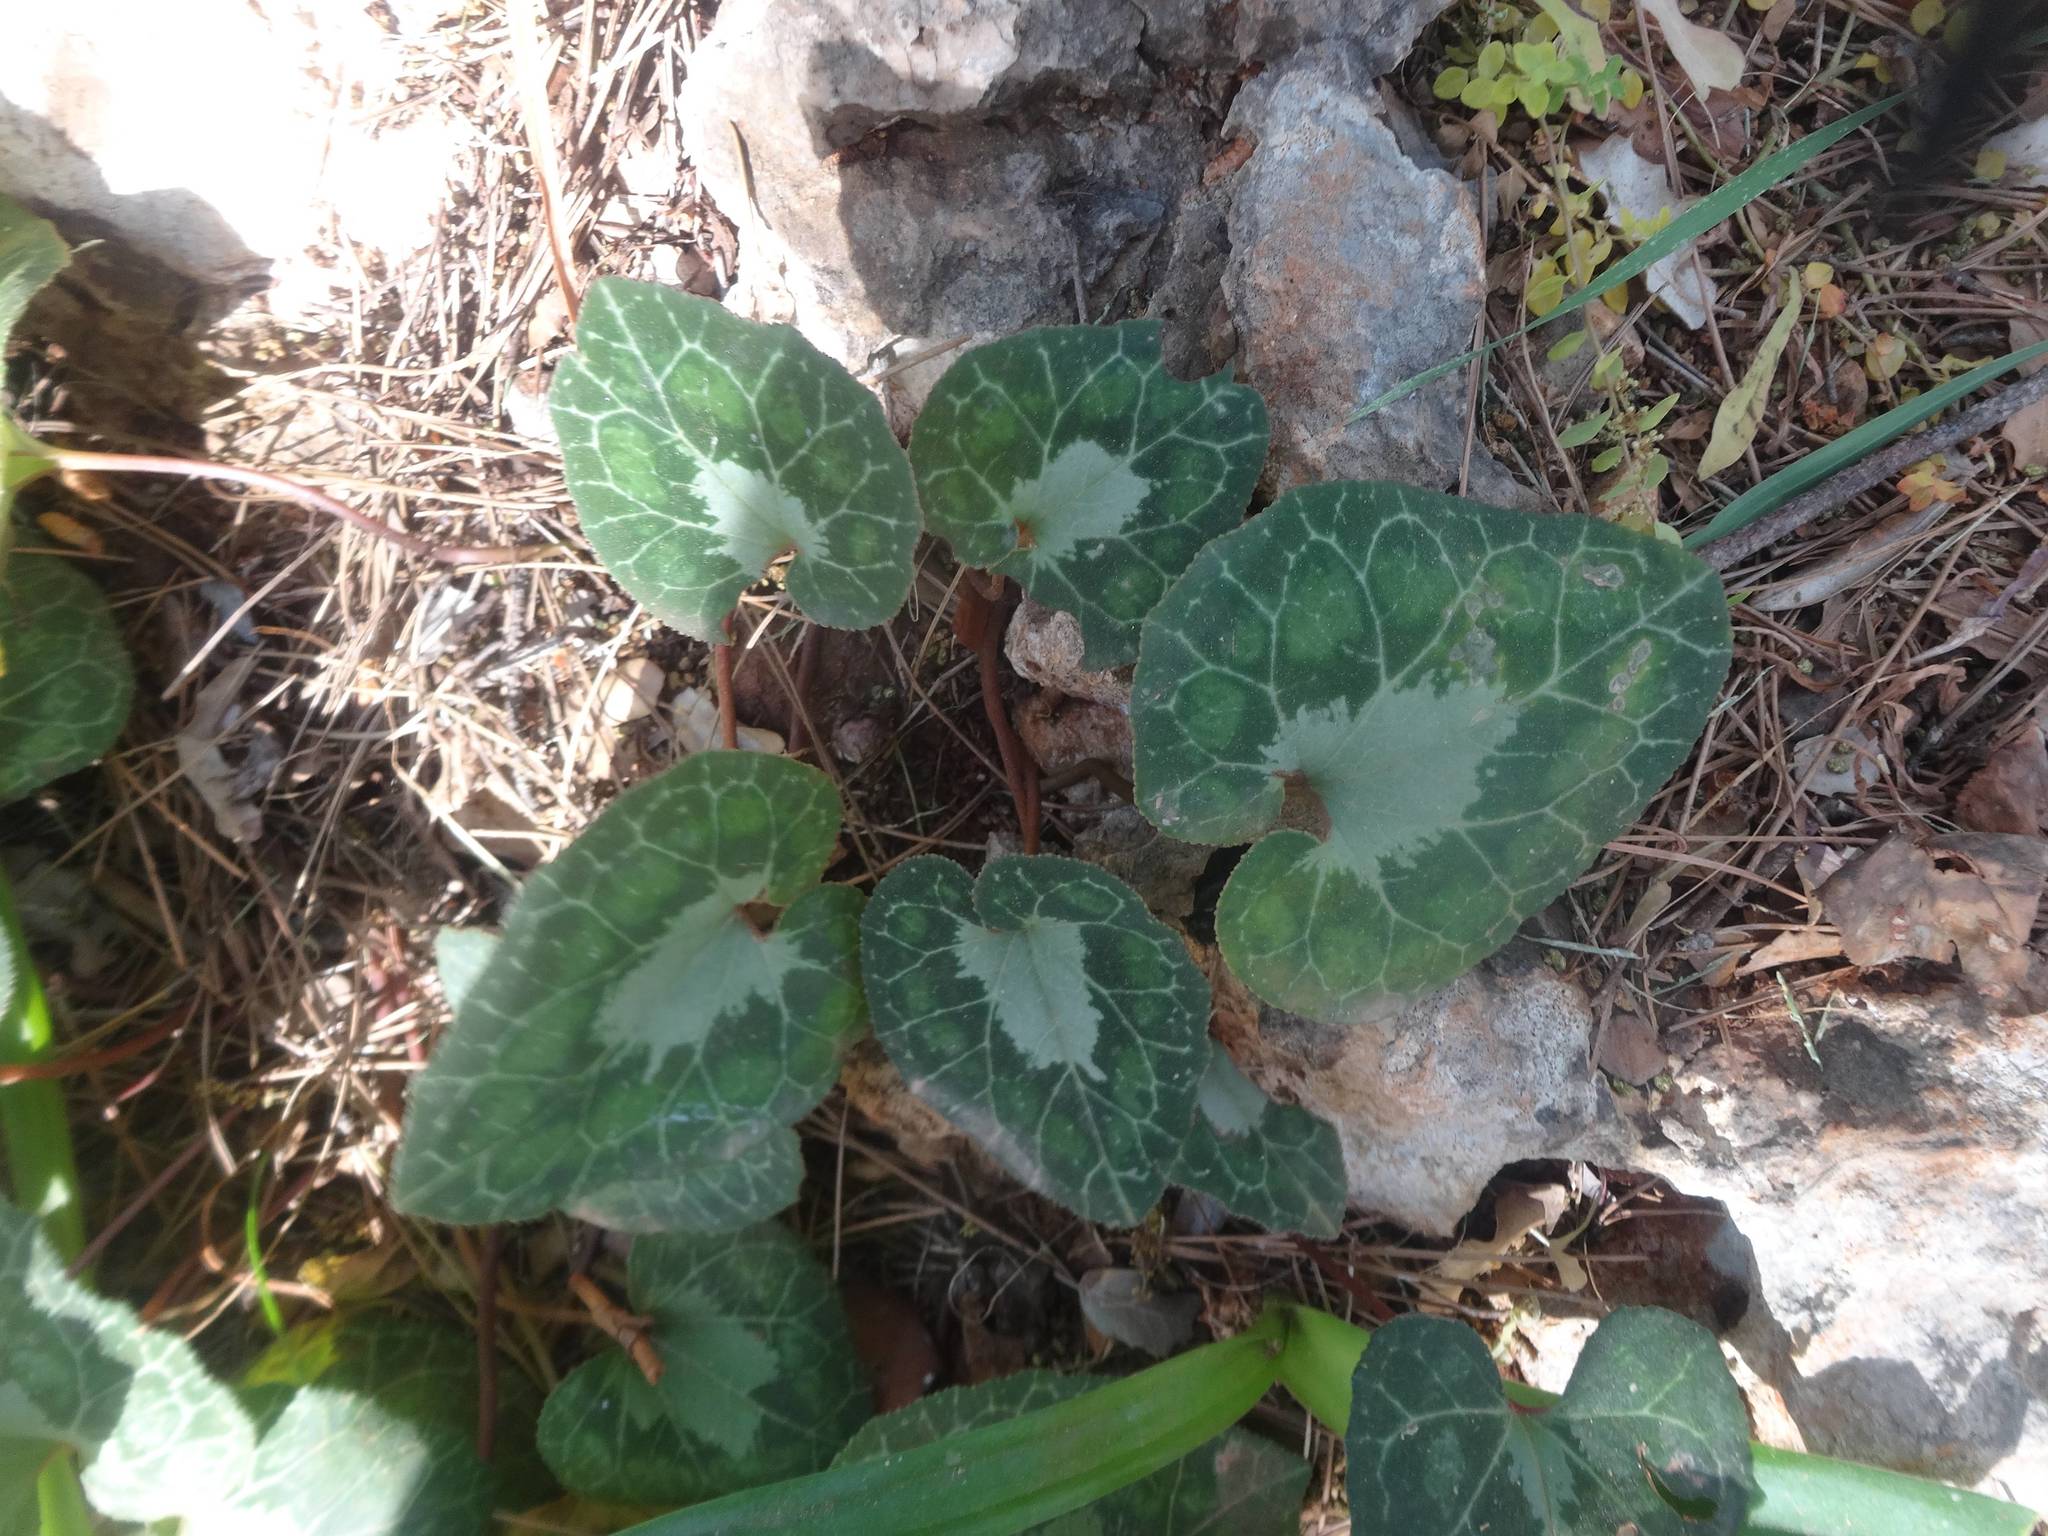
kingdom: Plantae
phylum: Tracheophyta
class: Magnoliopsida
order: Ericales
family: Primulaceae
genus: Cyclamen
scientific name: Cyclamen graecum
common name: Greek cyclamen
